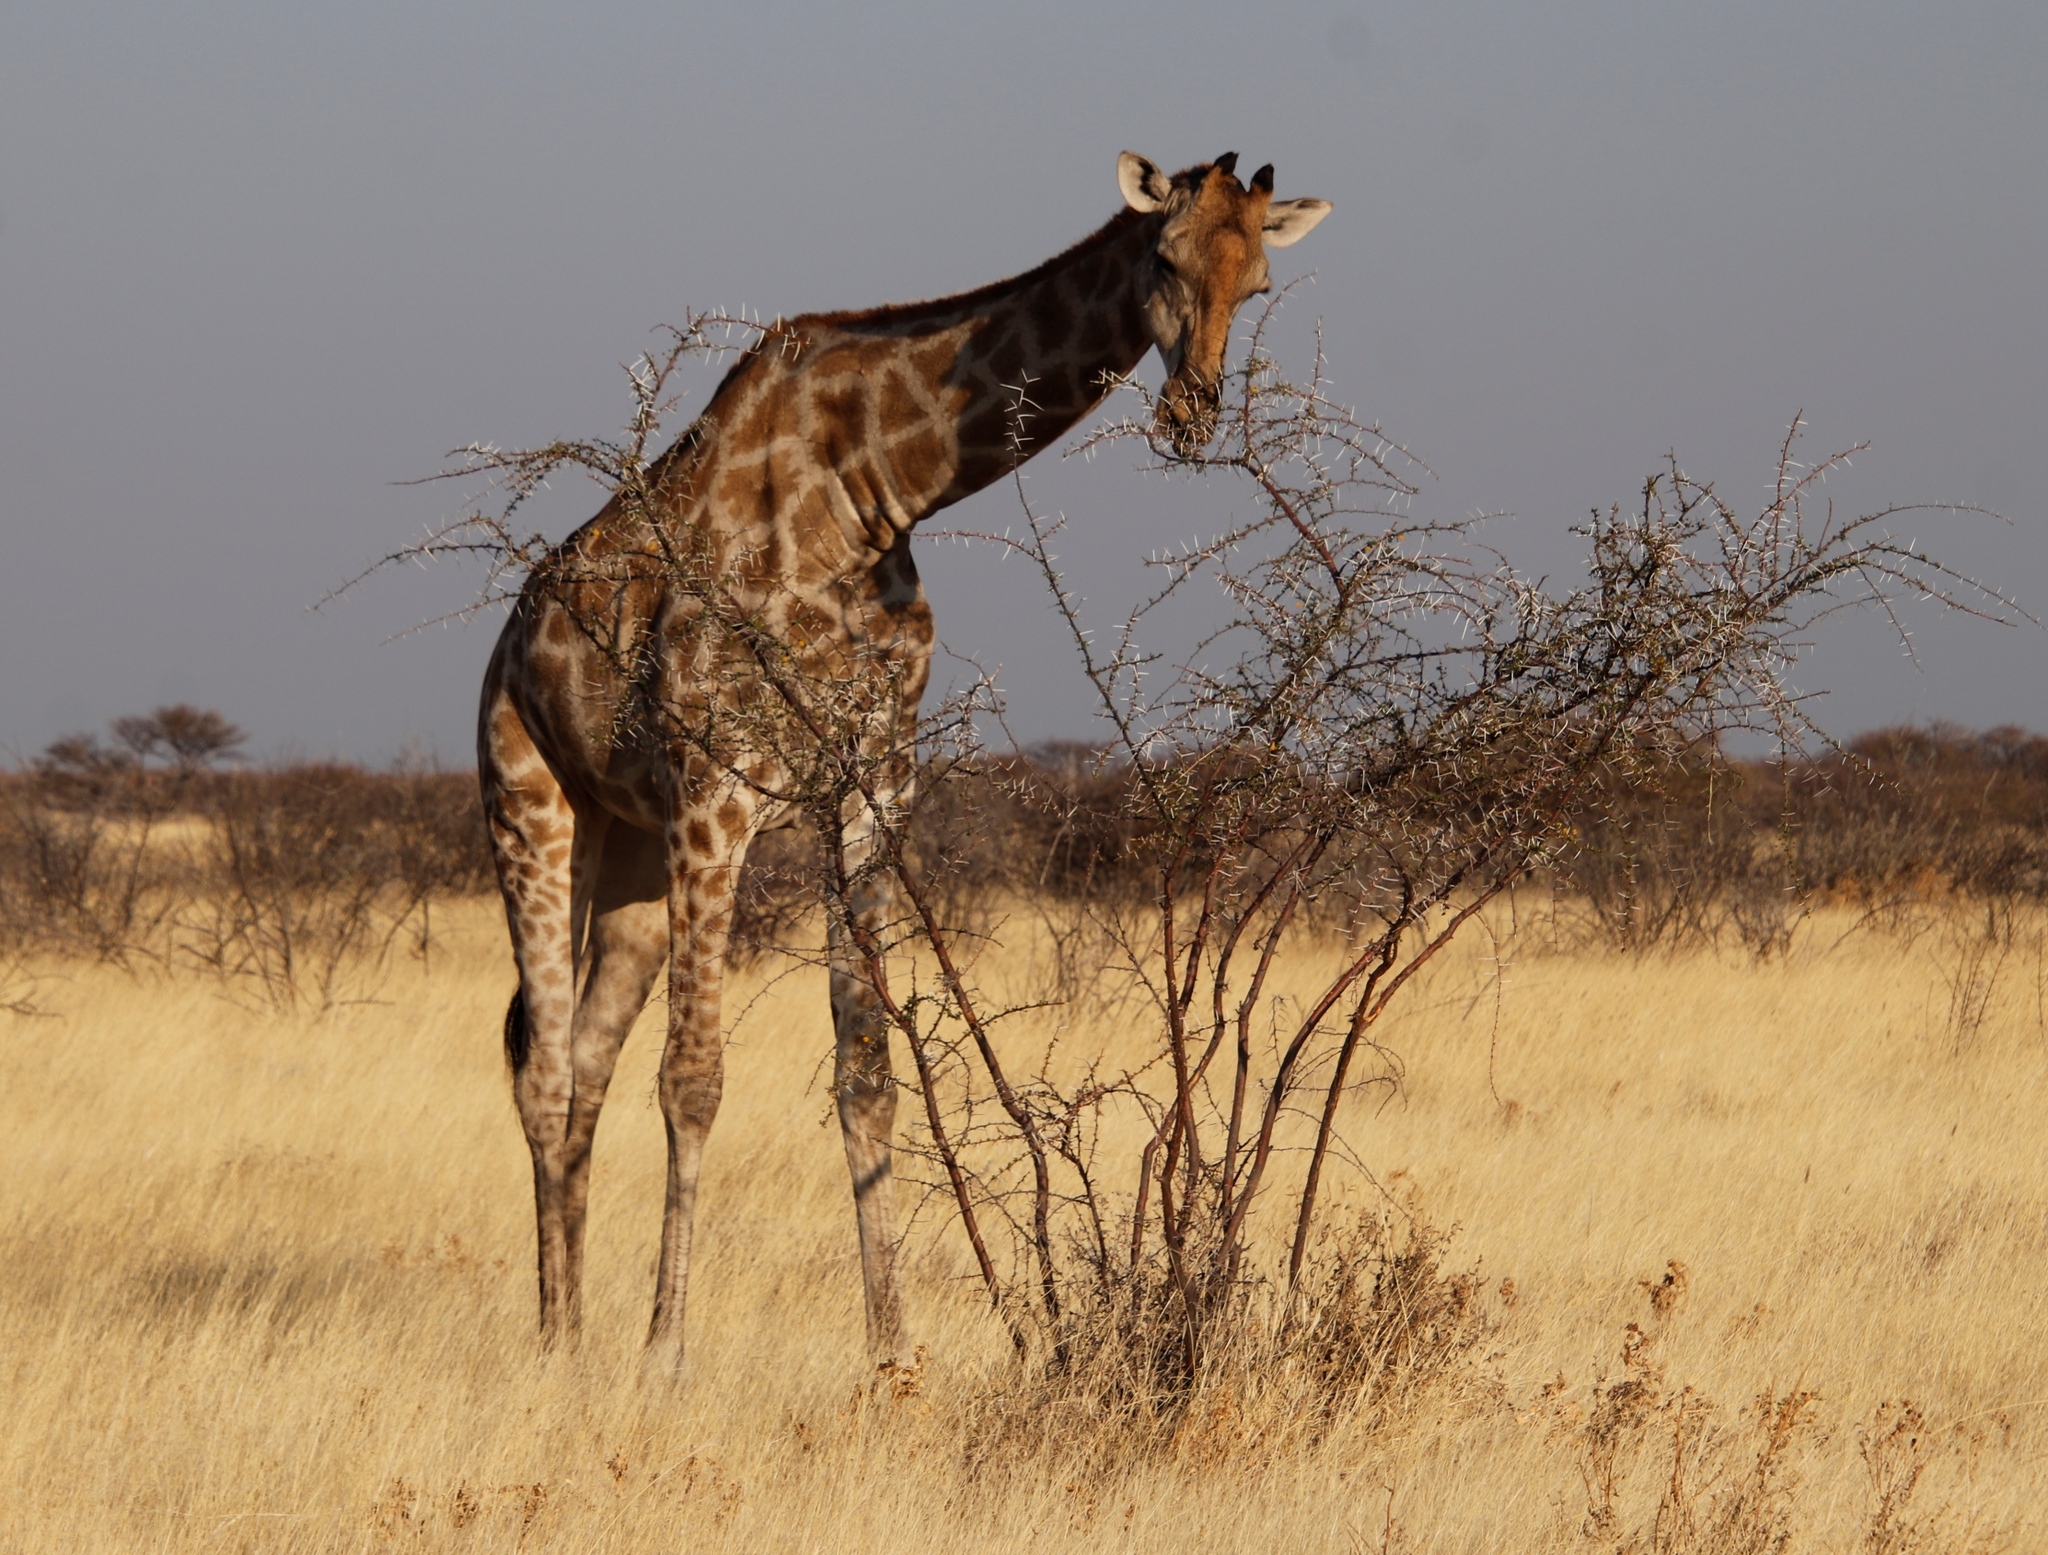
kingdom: Animalia
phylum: Chordata
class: Mammalia
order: Artiodactyla
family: Giraffidae
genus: Giraffa
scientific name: Giraffa giraffa
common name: Southern giraffe
